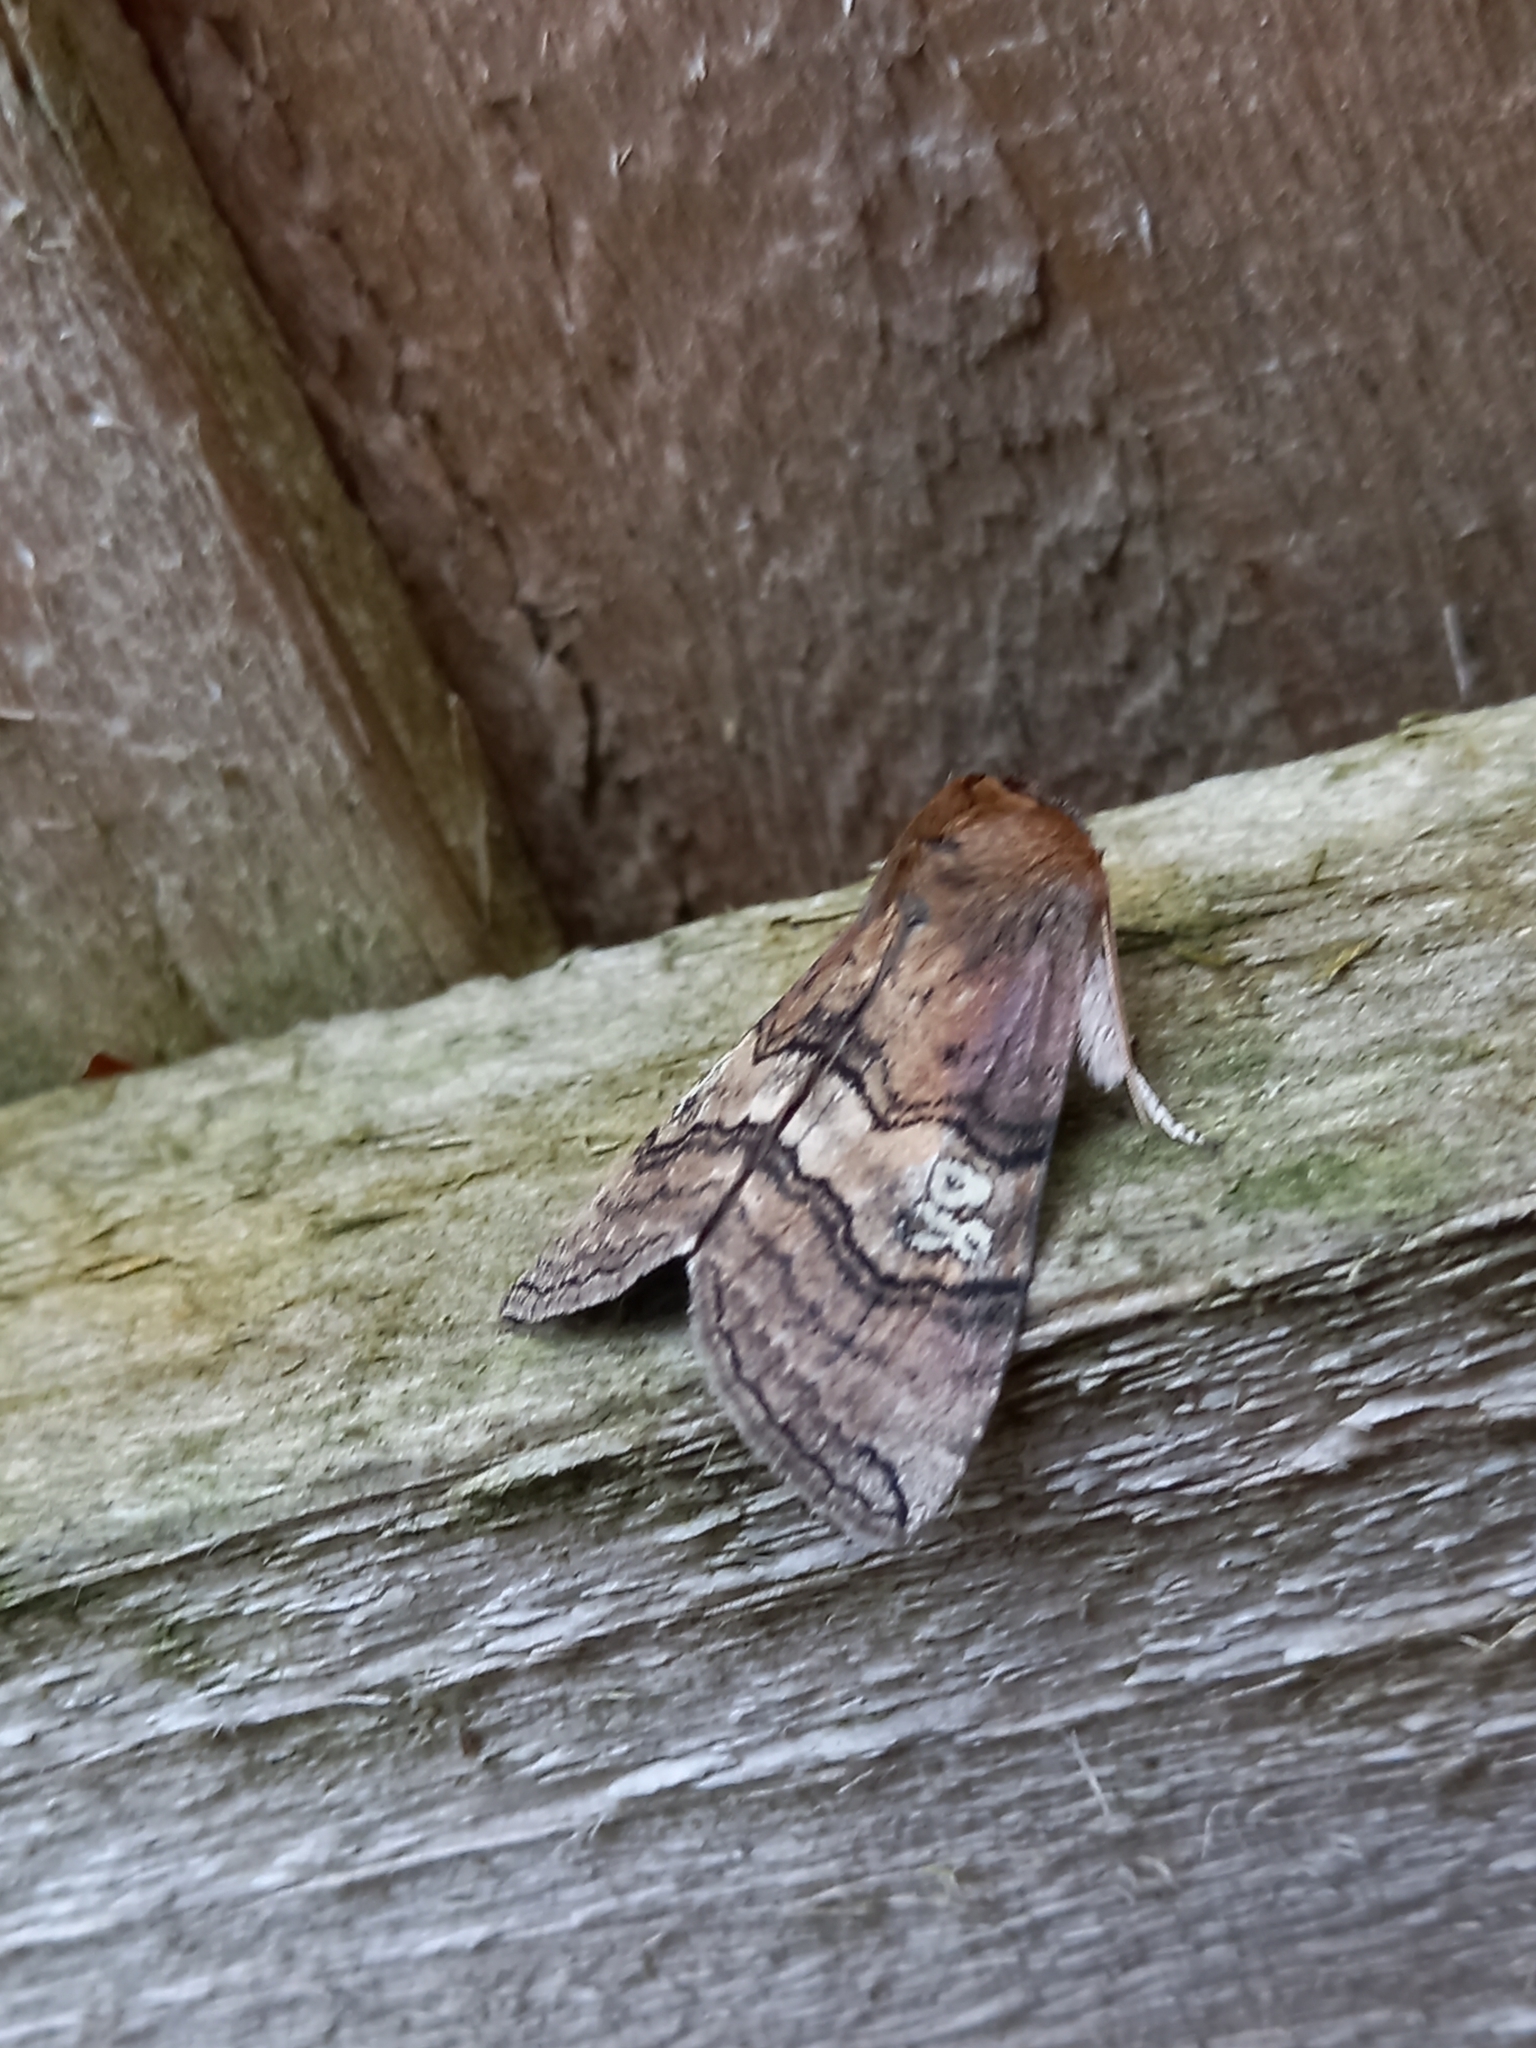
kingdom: Animalia
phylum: Arthropoda
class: Insecta
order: Lepidoptera
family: Drepanidae
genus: Tethea
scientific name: Tethea ocularis
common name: Figure of eighty
